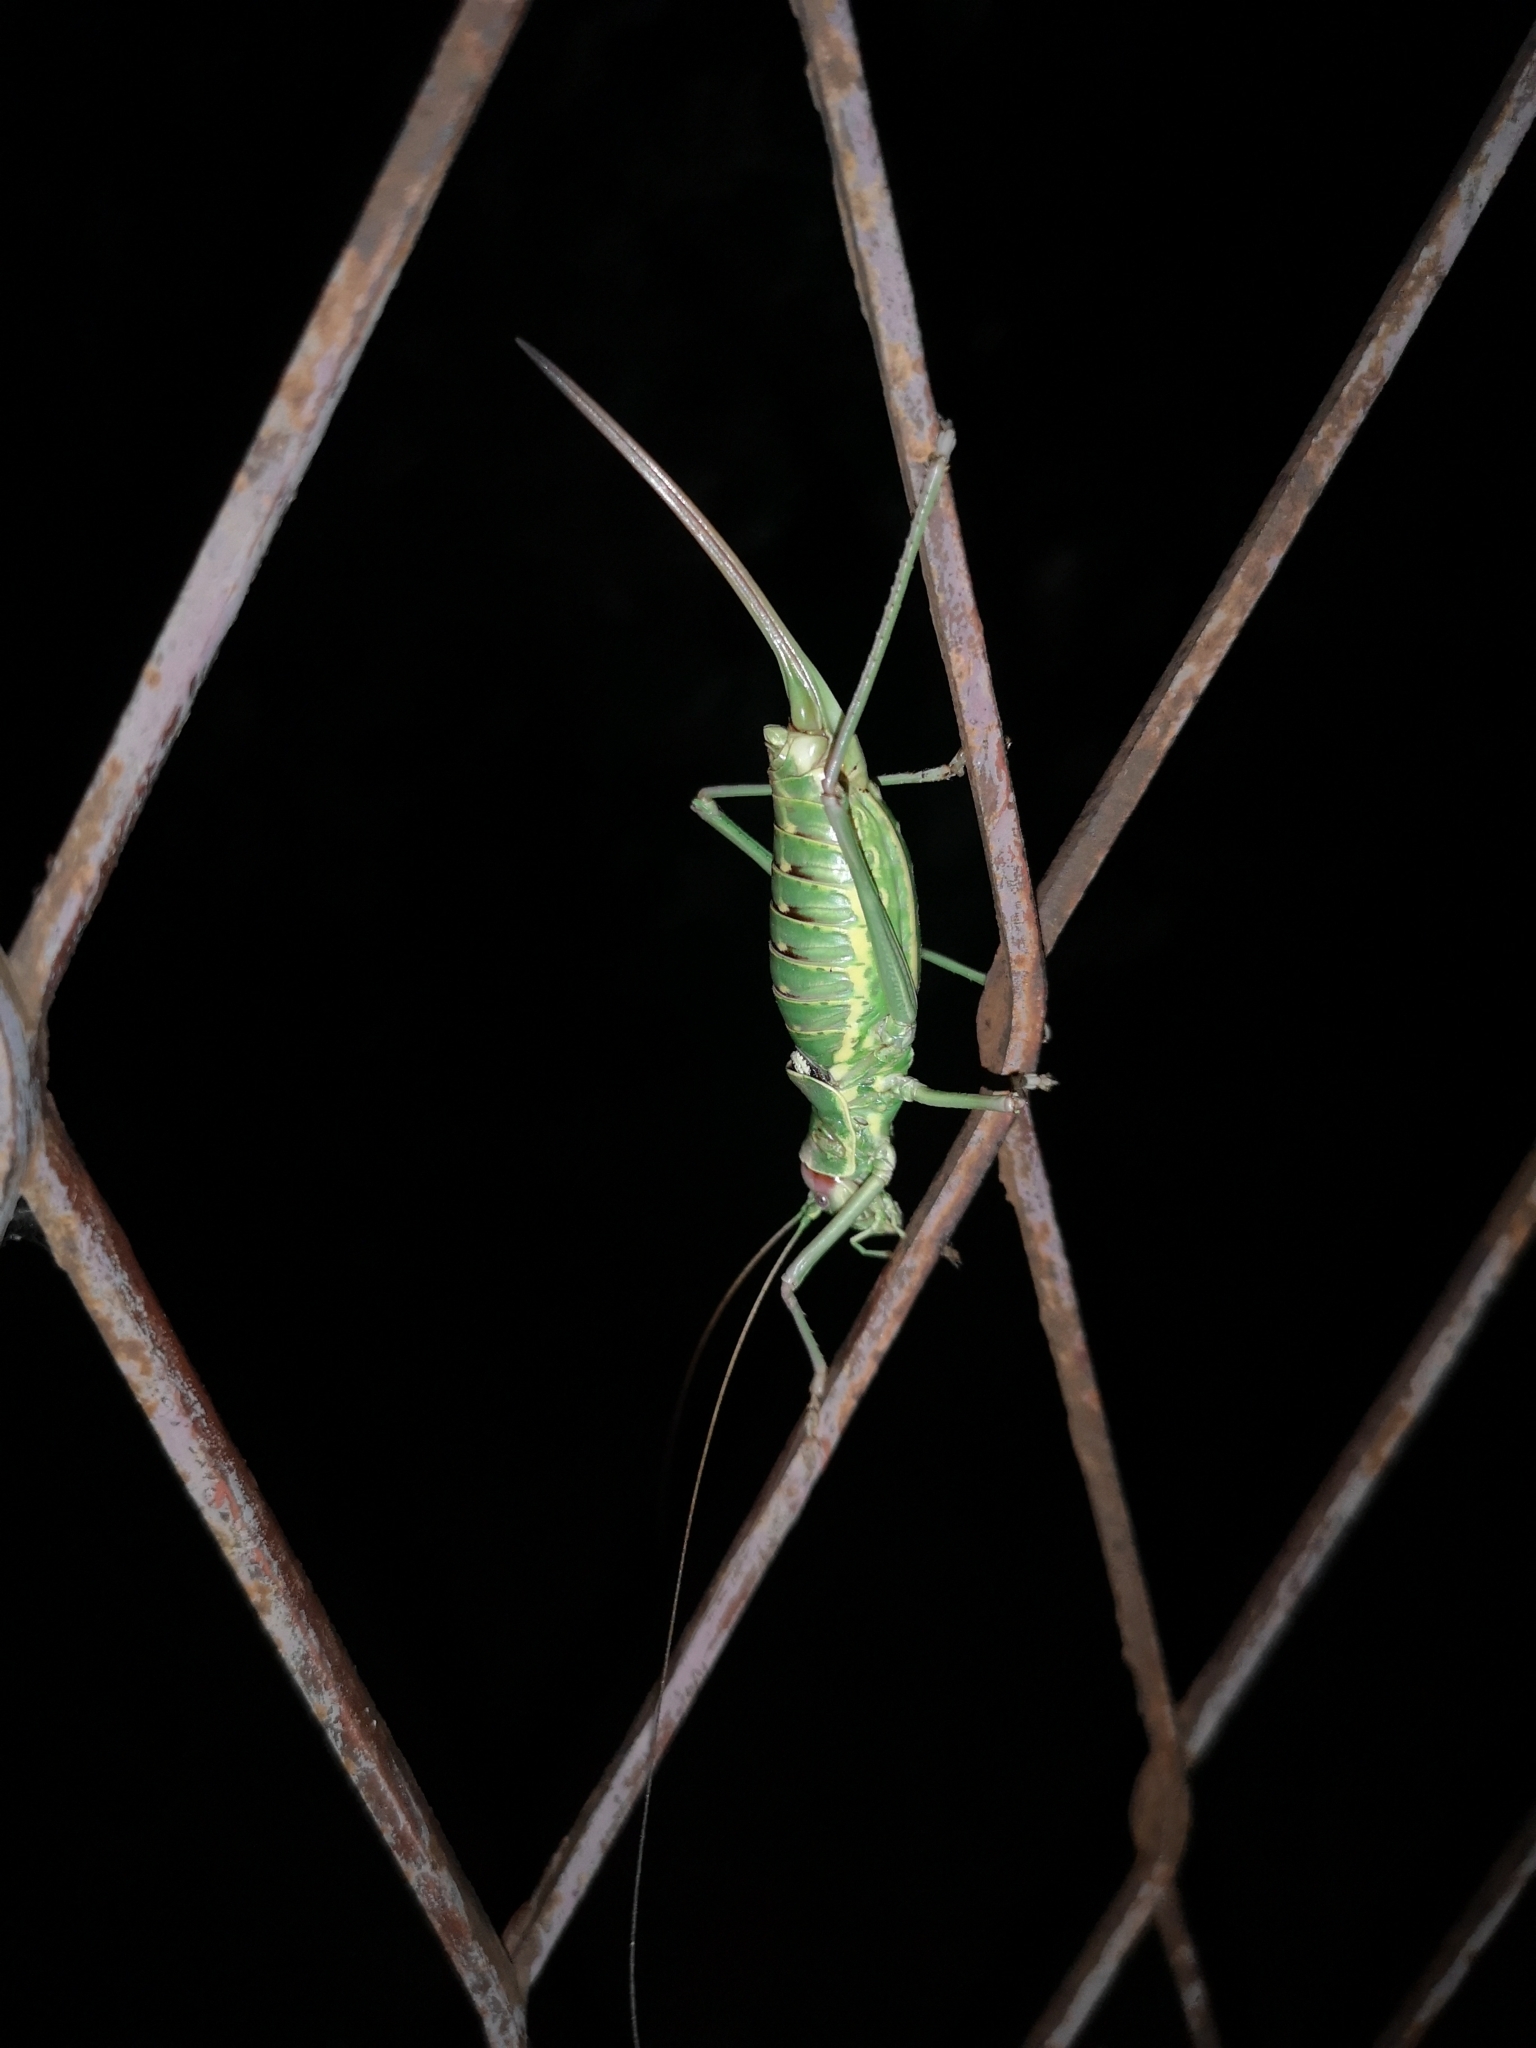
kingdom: Animalia
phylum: Arthropoda
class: Insecta
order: Orthoptera
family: Tettigoniidae
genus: Dinarippiger
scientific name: Dinarippiger discoidalis
